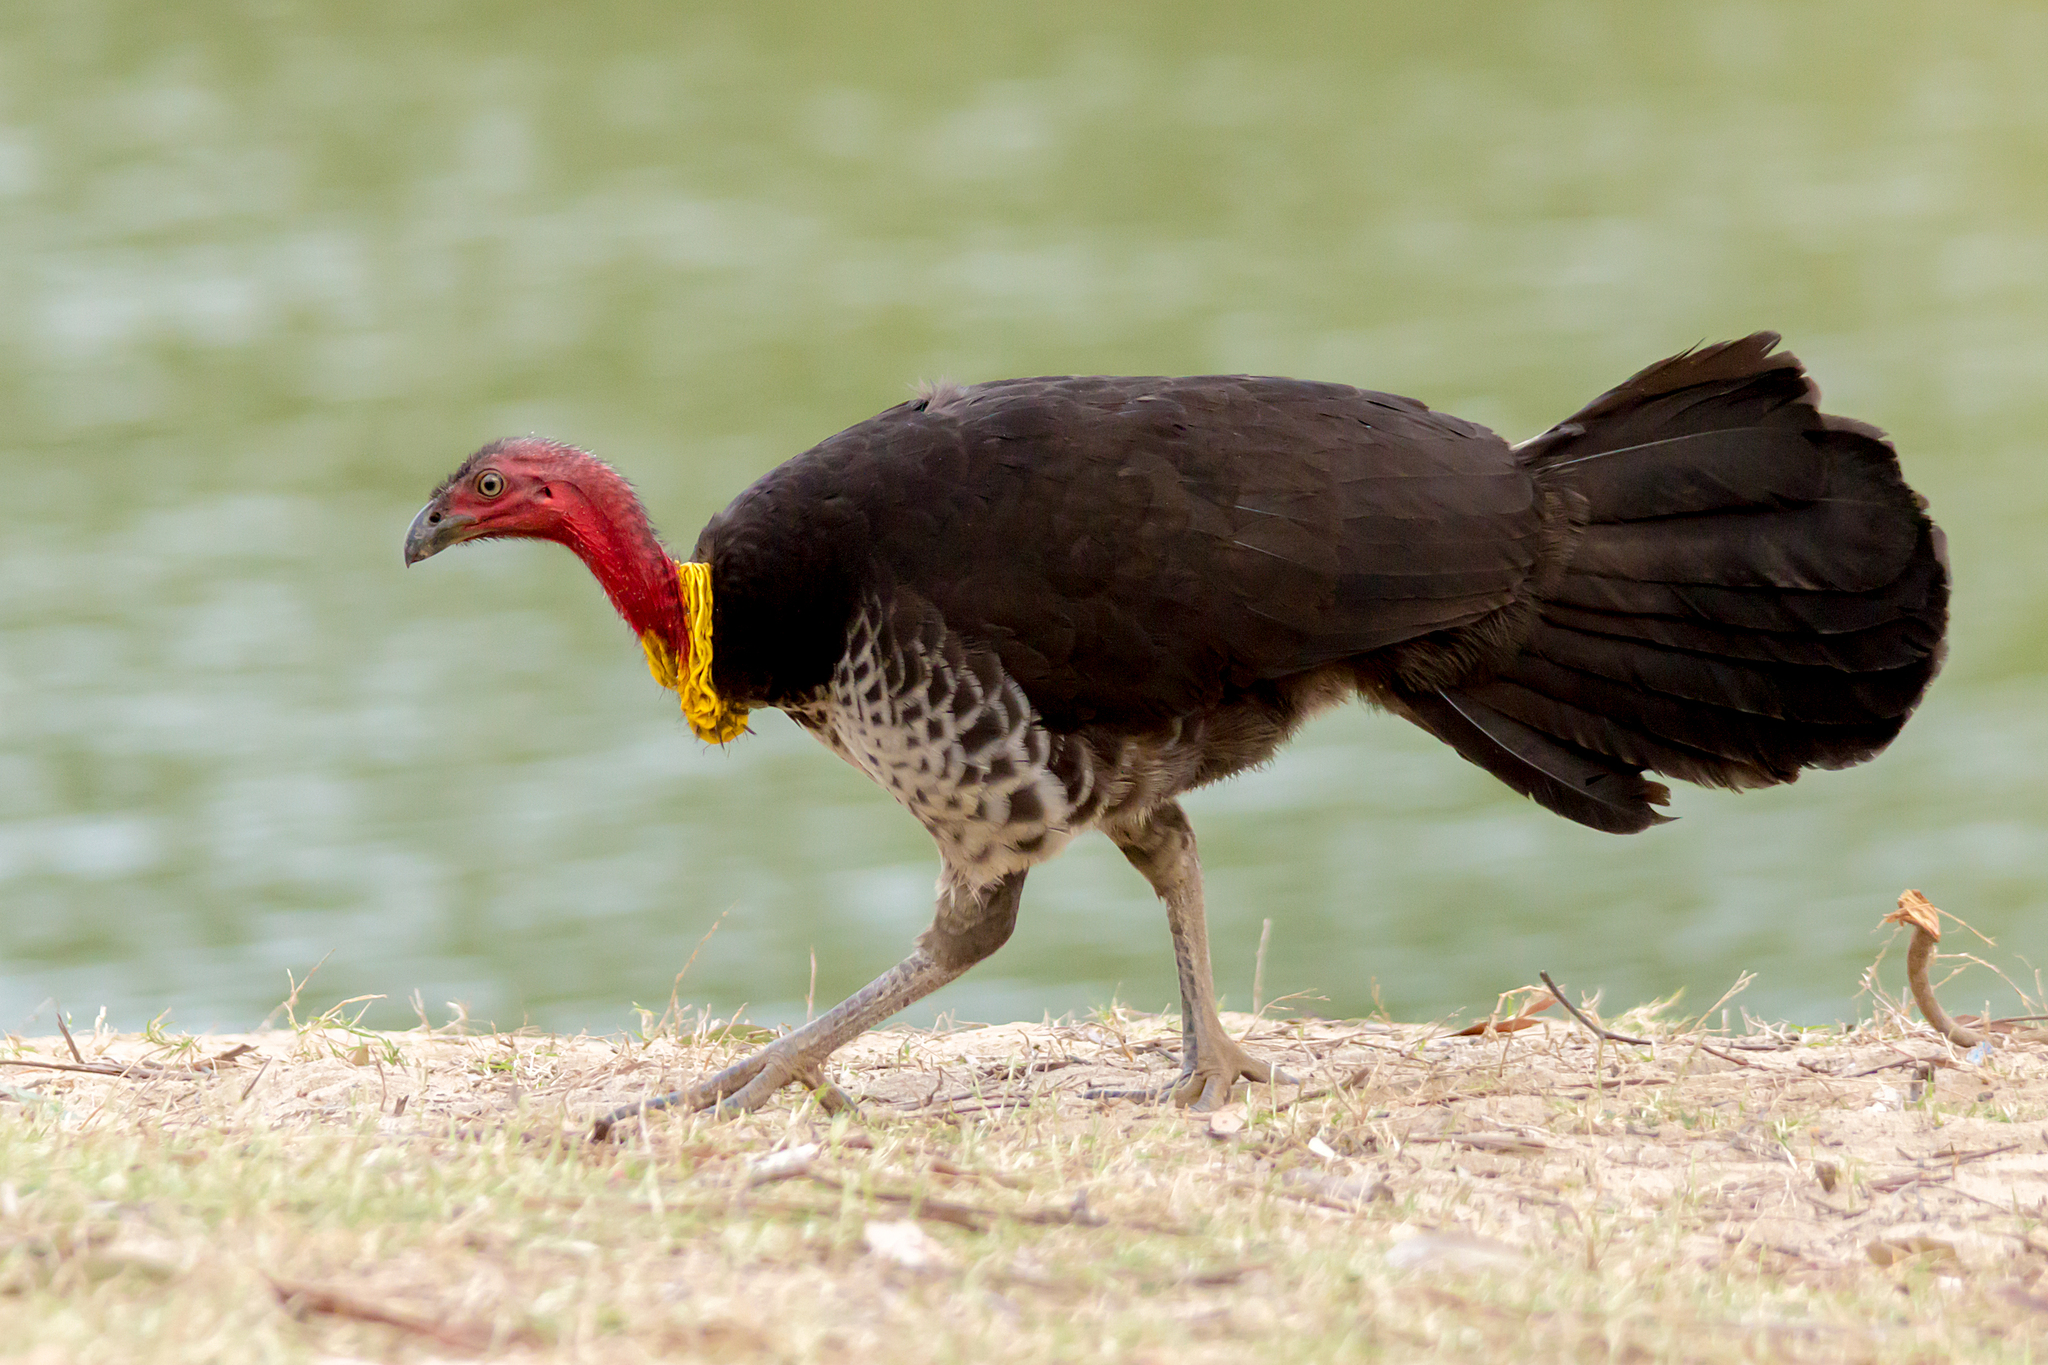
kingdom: Animalia
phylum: Chordata
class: Aves
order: Galliformes
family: Megapodiidae
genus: Alectura
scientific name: Alectura lathami
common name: Australian brushturkey
